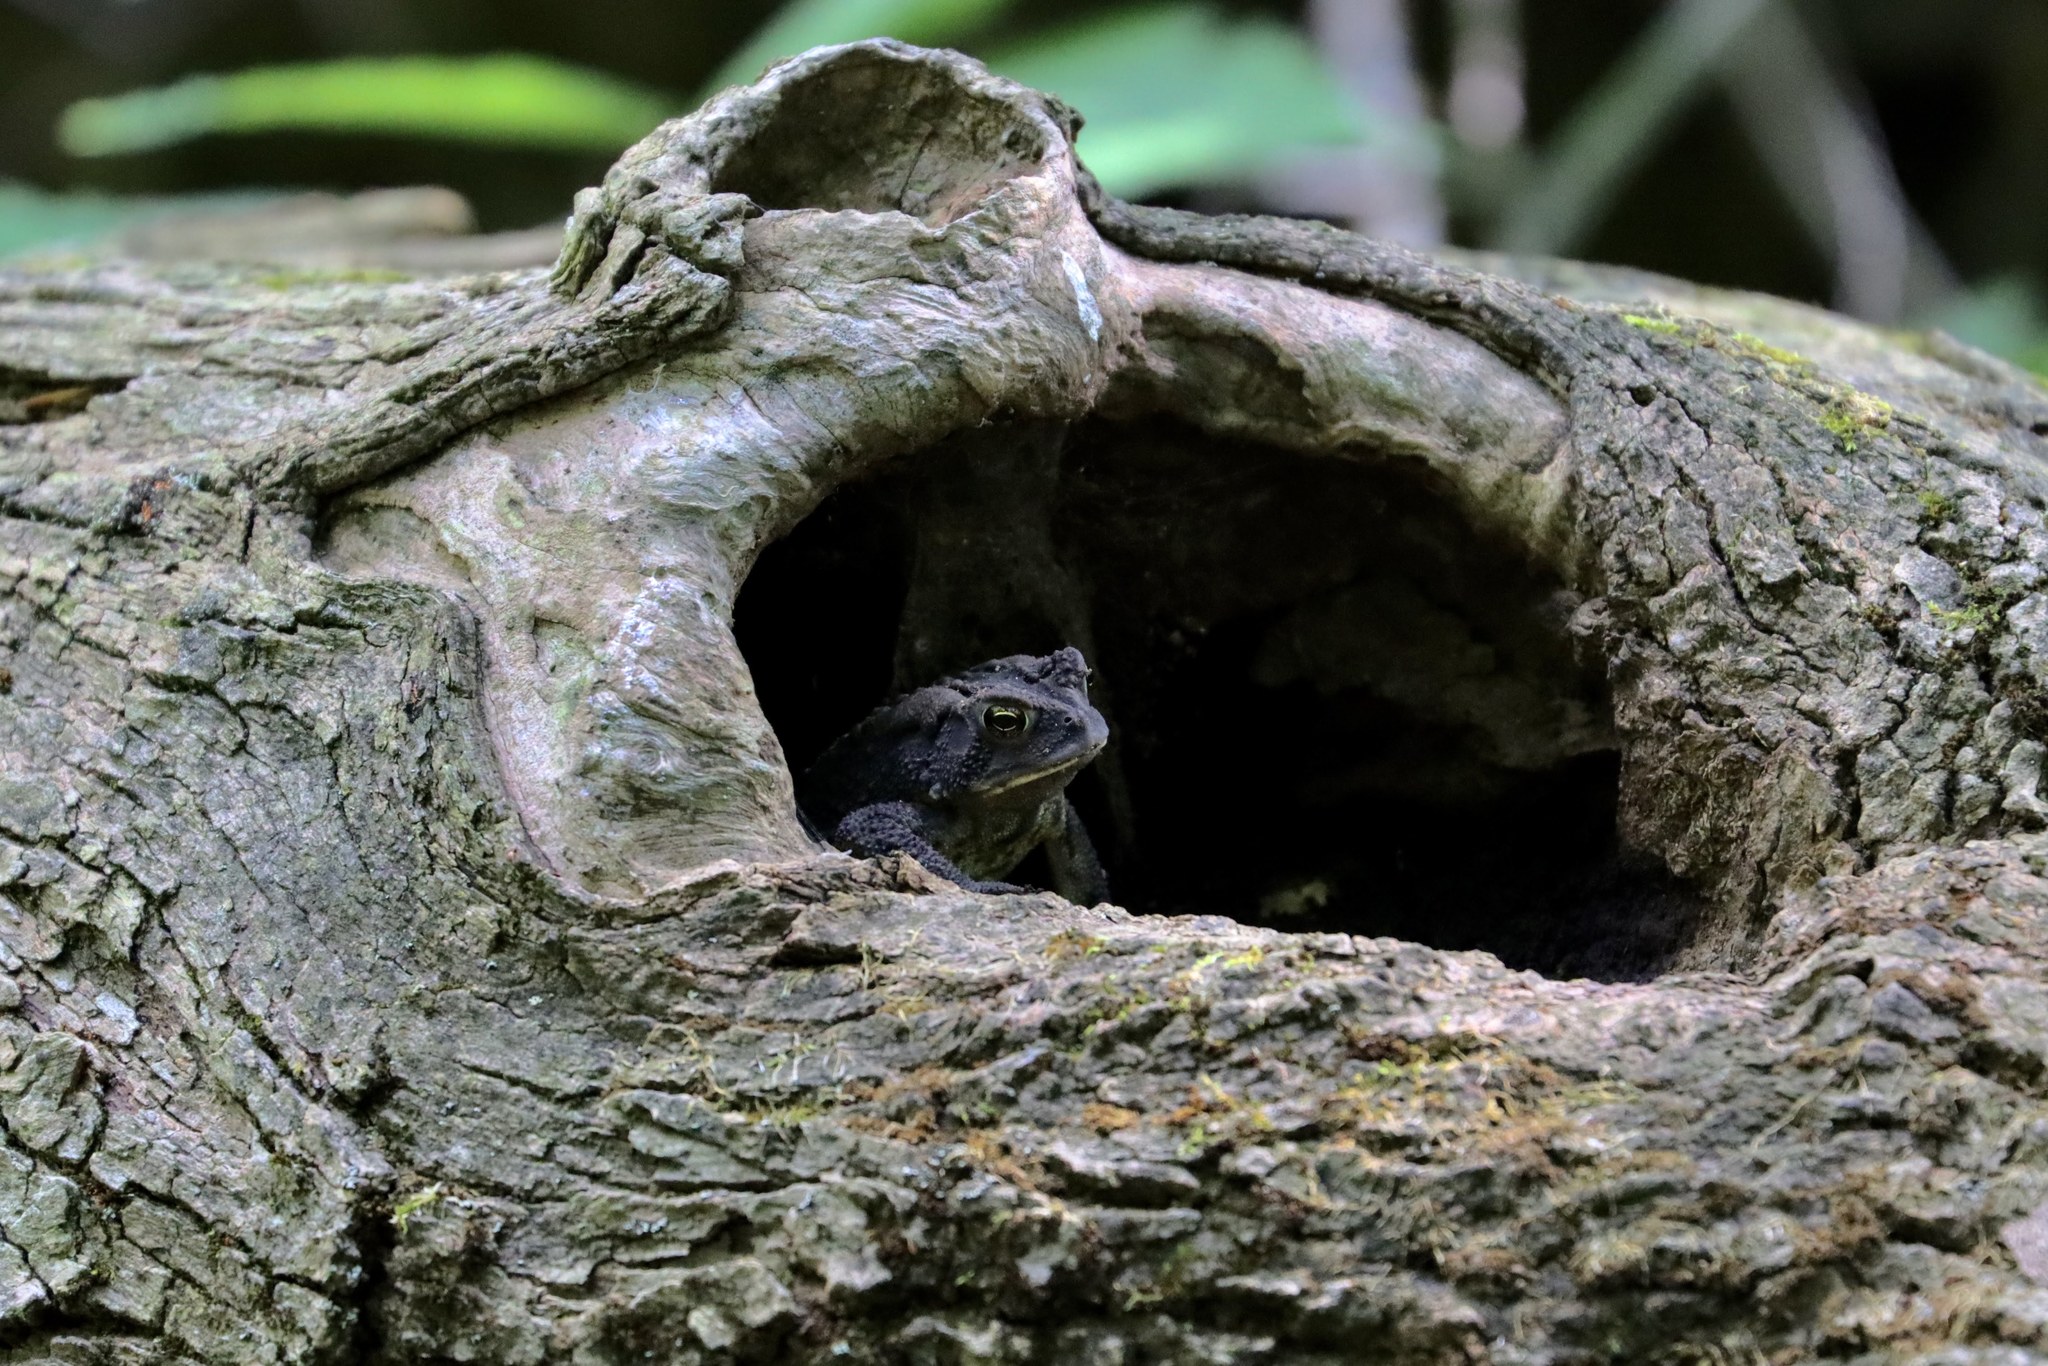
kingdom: Animalia
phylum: Chordata
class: Amphibia
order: Anura
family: Bufonidae
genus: Anaxyrus
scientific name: Anaxyrus americanus
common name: American toad
